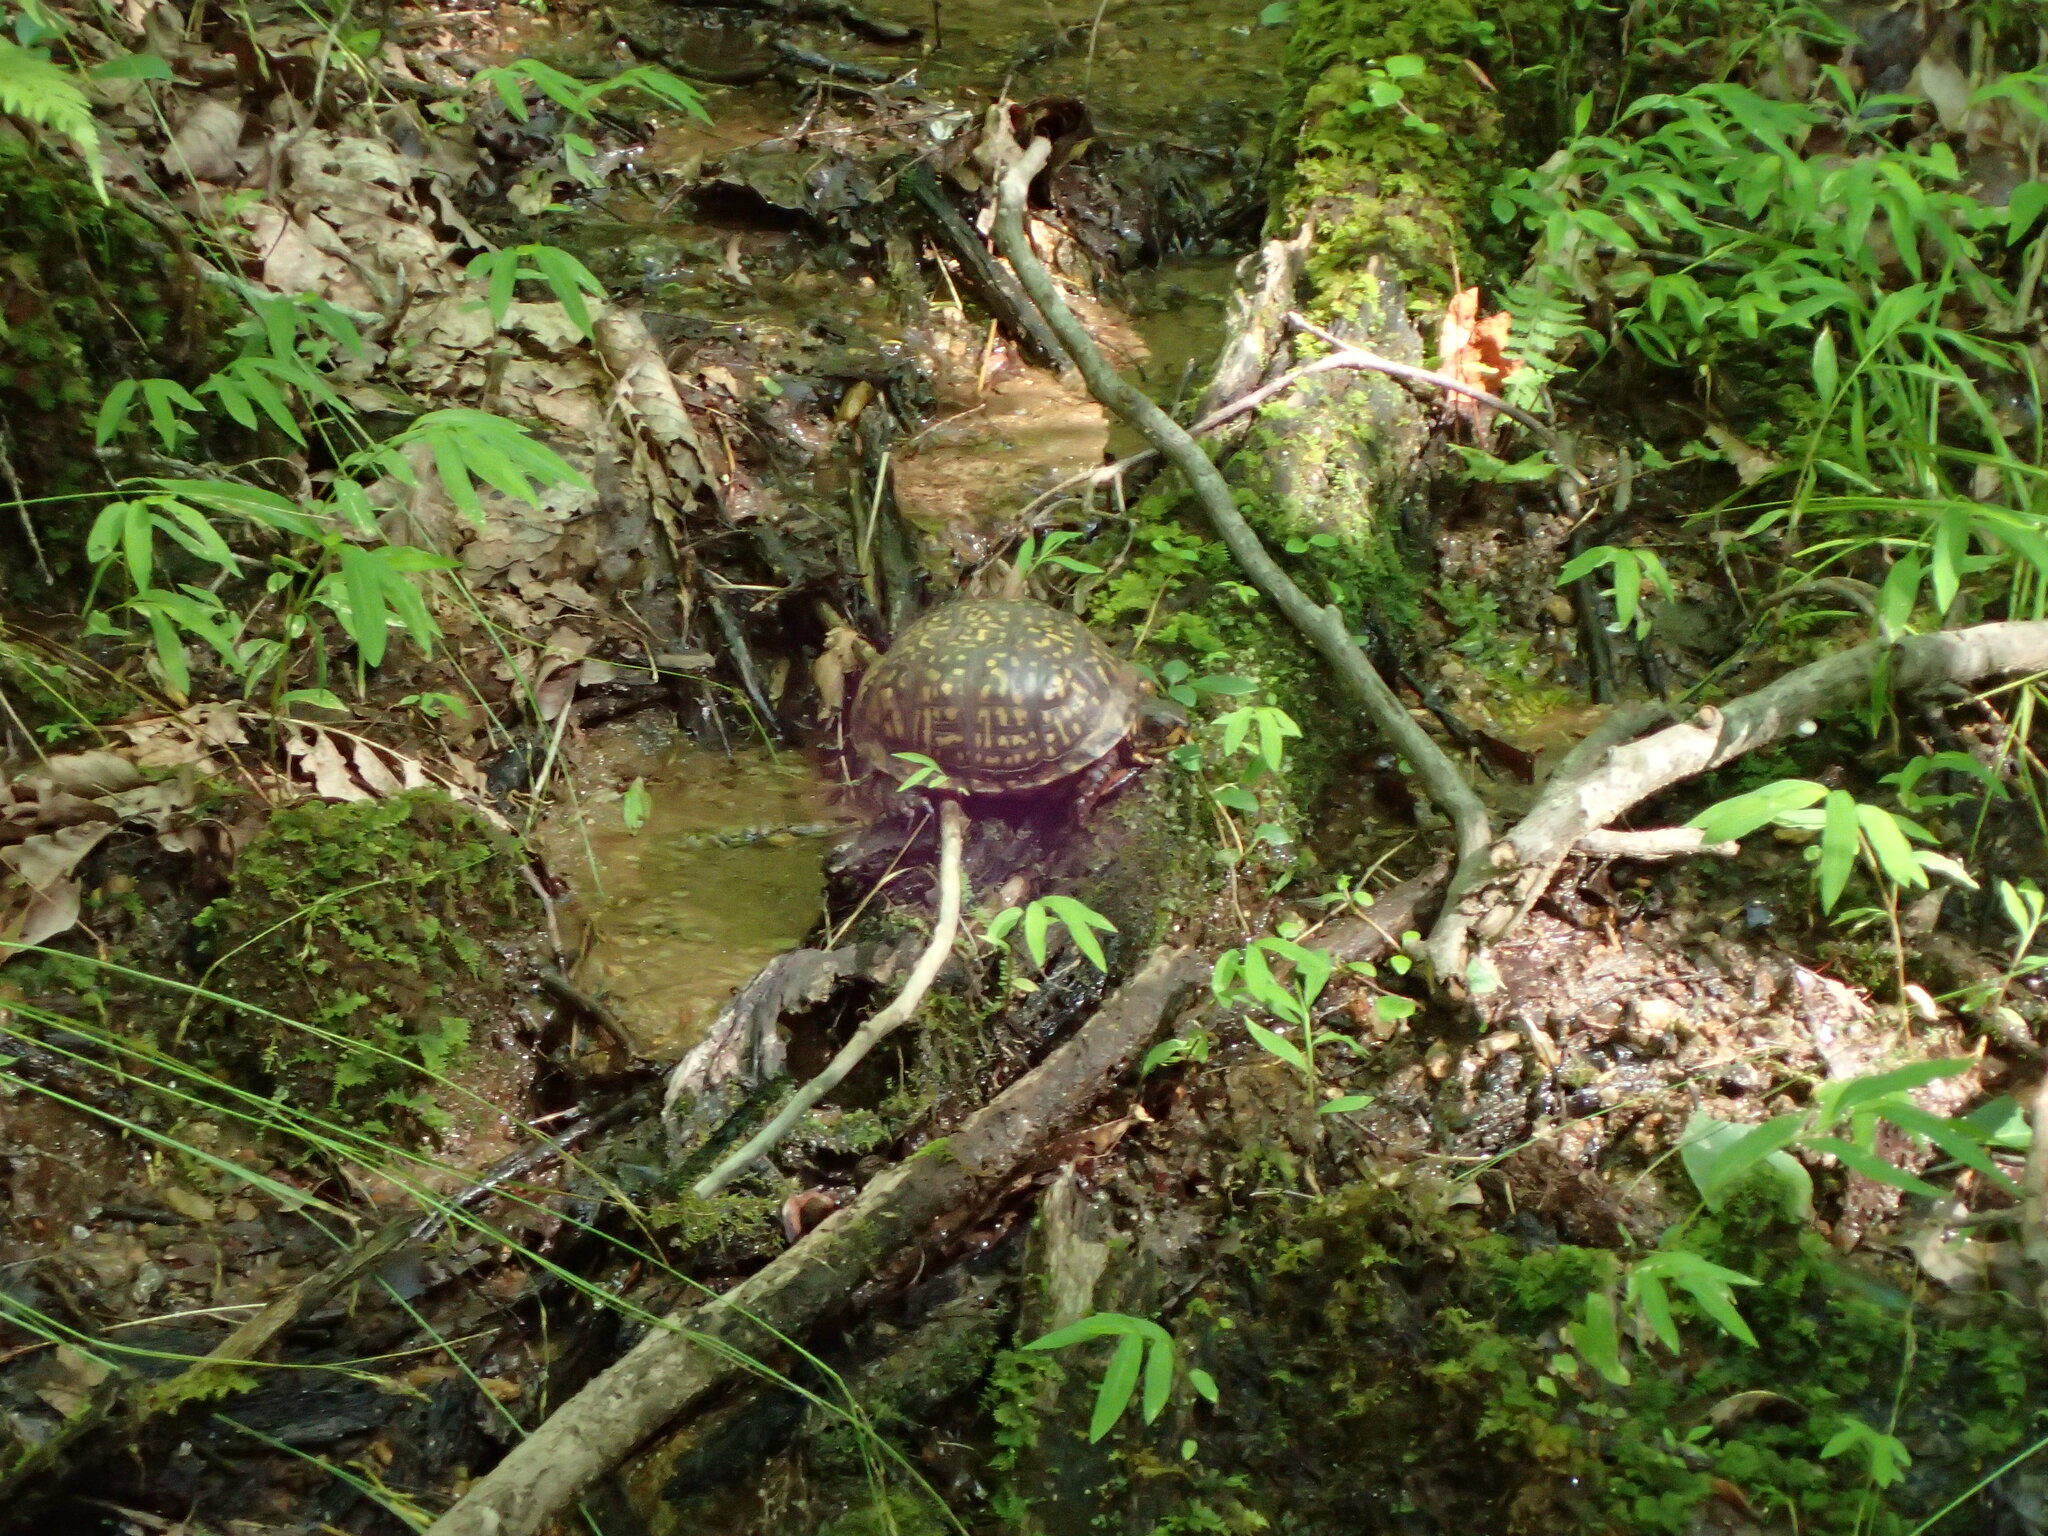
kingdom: Animalia
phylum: Chordata
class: Testudines
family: Emydidae
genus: Terrapene
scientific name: Terrapene carolina
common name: Common box turtle
